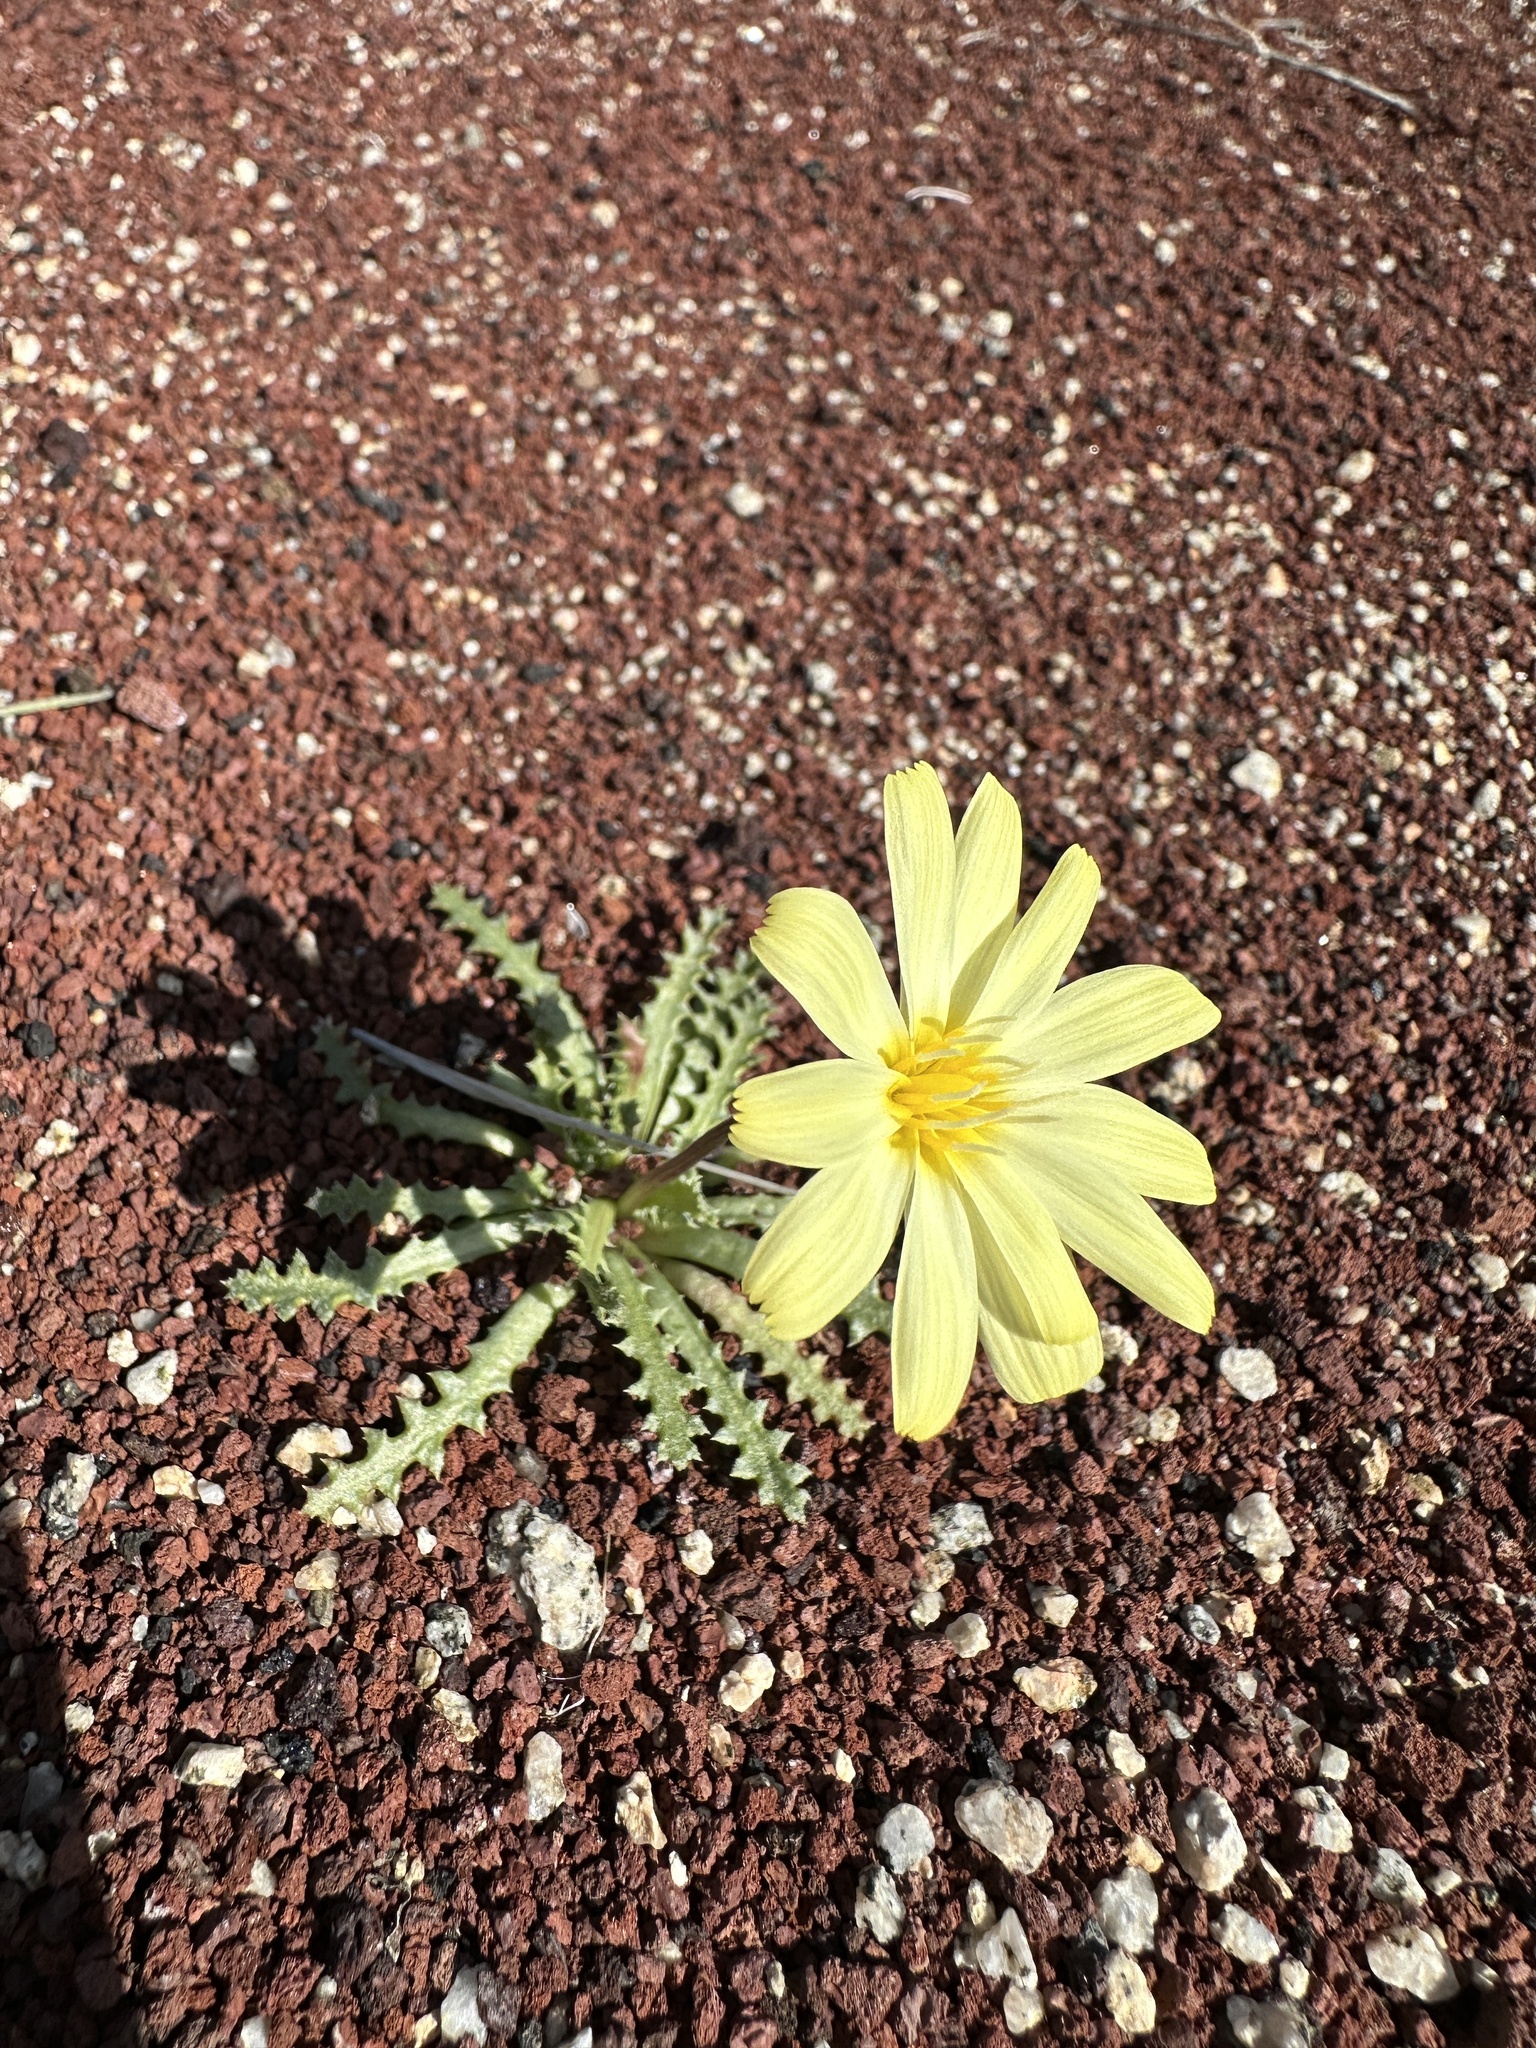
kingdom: Plantae
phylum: Tracheophyta
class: Magnoliopsida
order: Asterales
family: Asteraceae
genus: Anisocoma
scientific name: Anisocoma acaulis
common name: Scalebud
